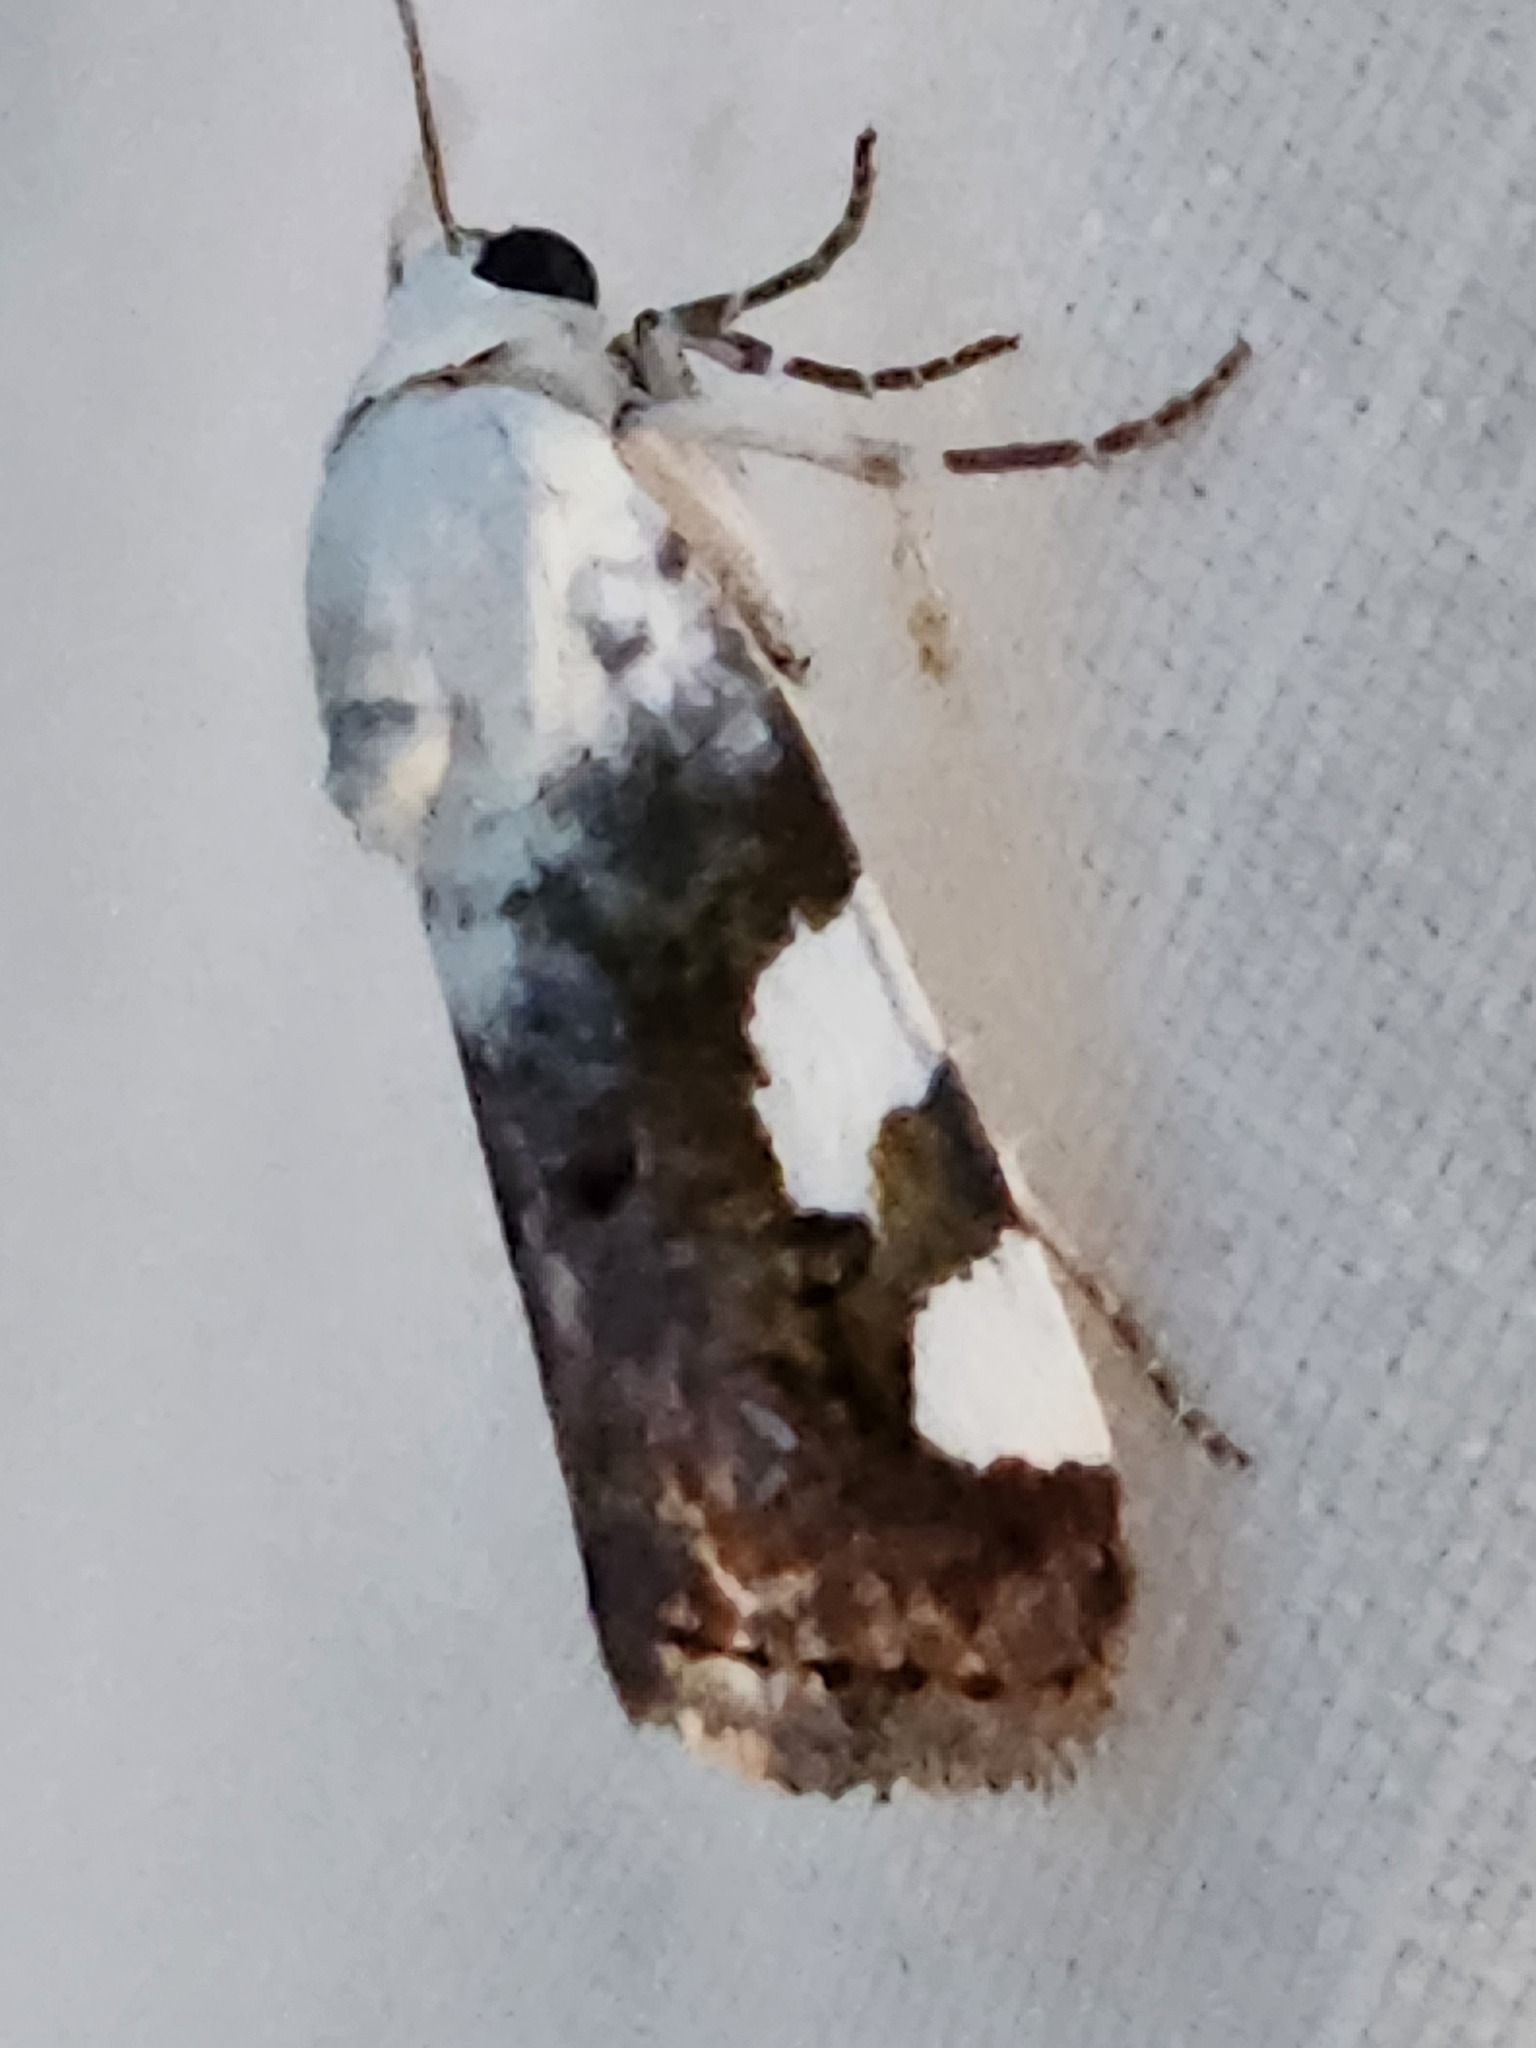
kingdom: Animalia
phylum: Arthropoda
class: Insecta
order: Lepidoptera
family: Noctuidae
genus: Acontia
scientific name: Acontia quadriplaga
